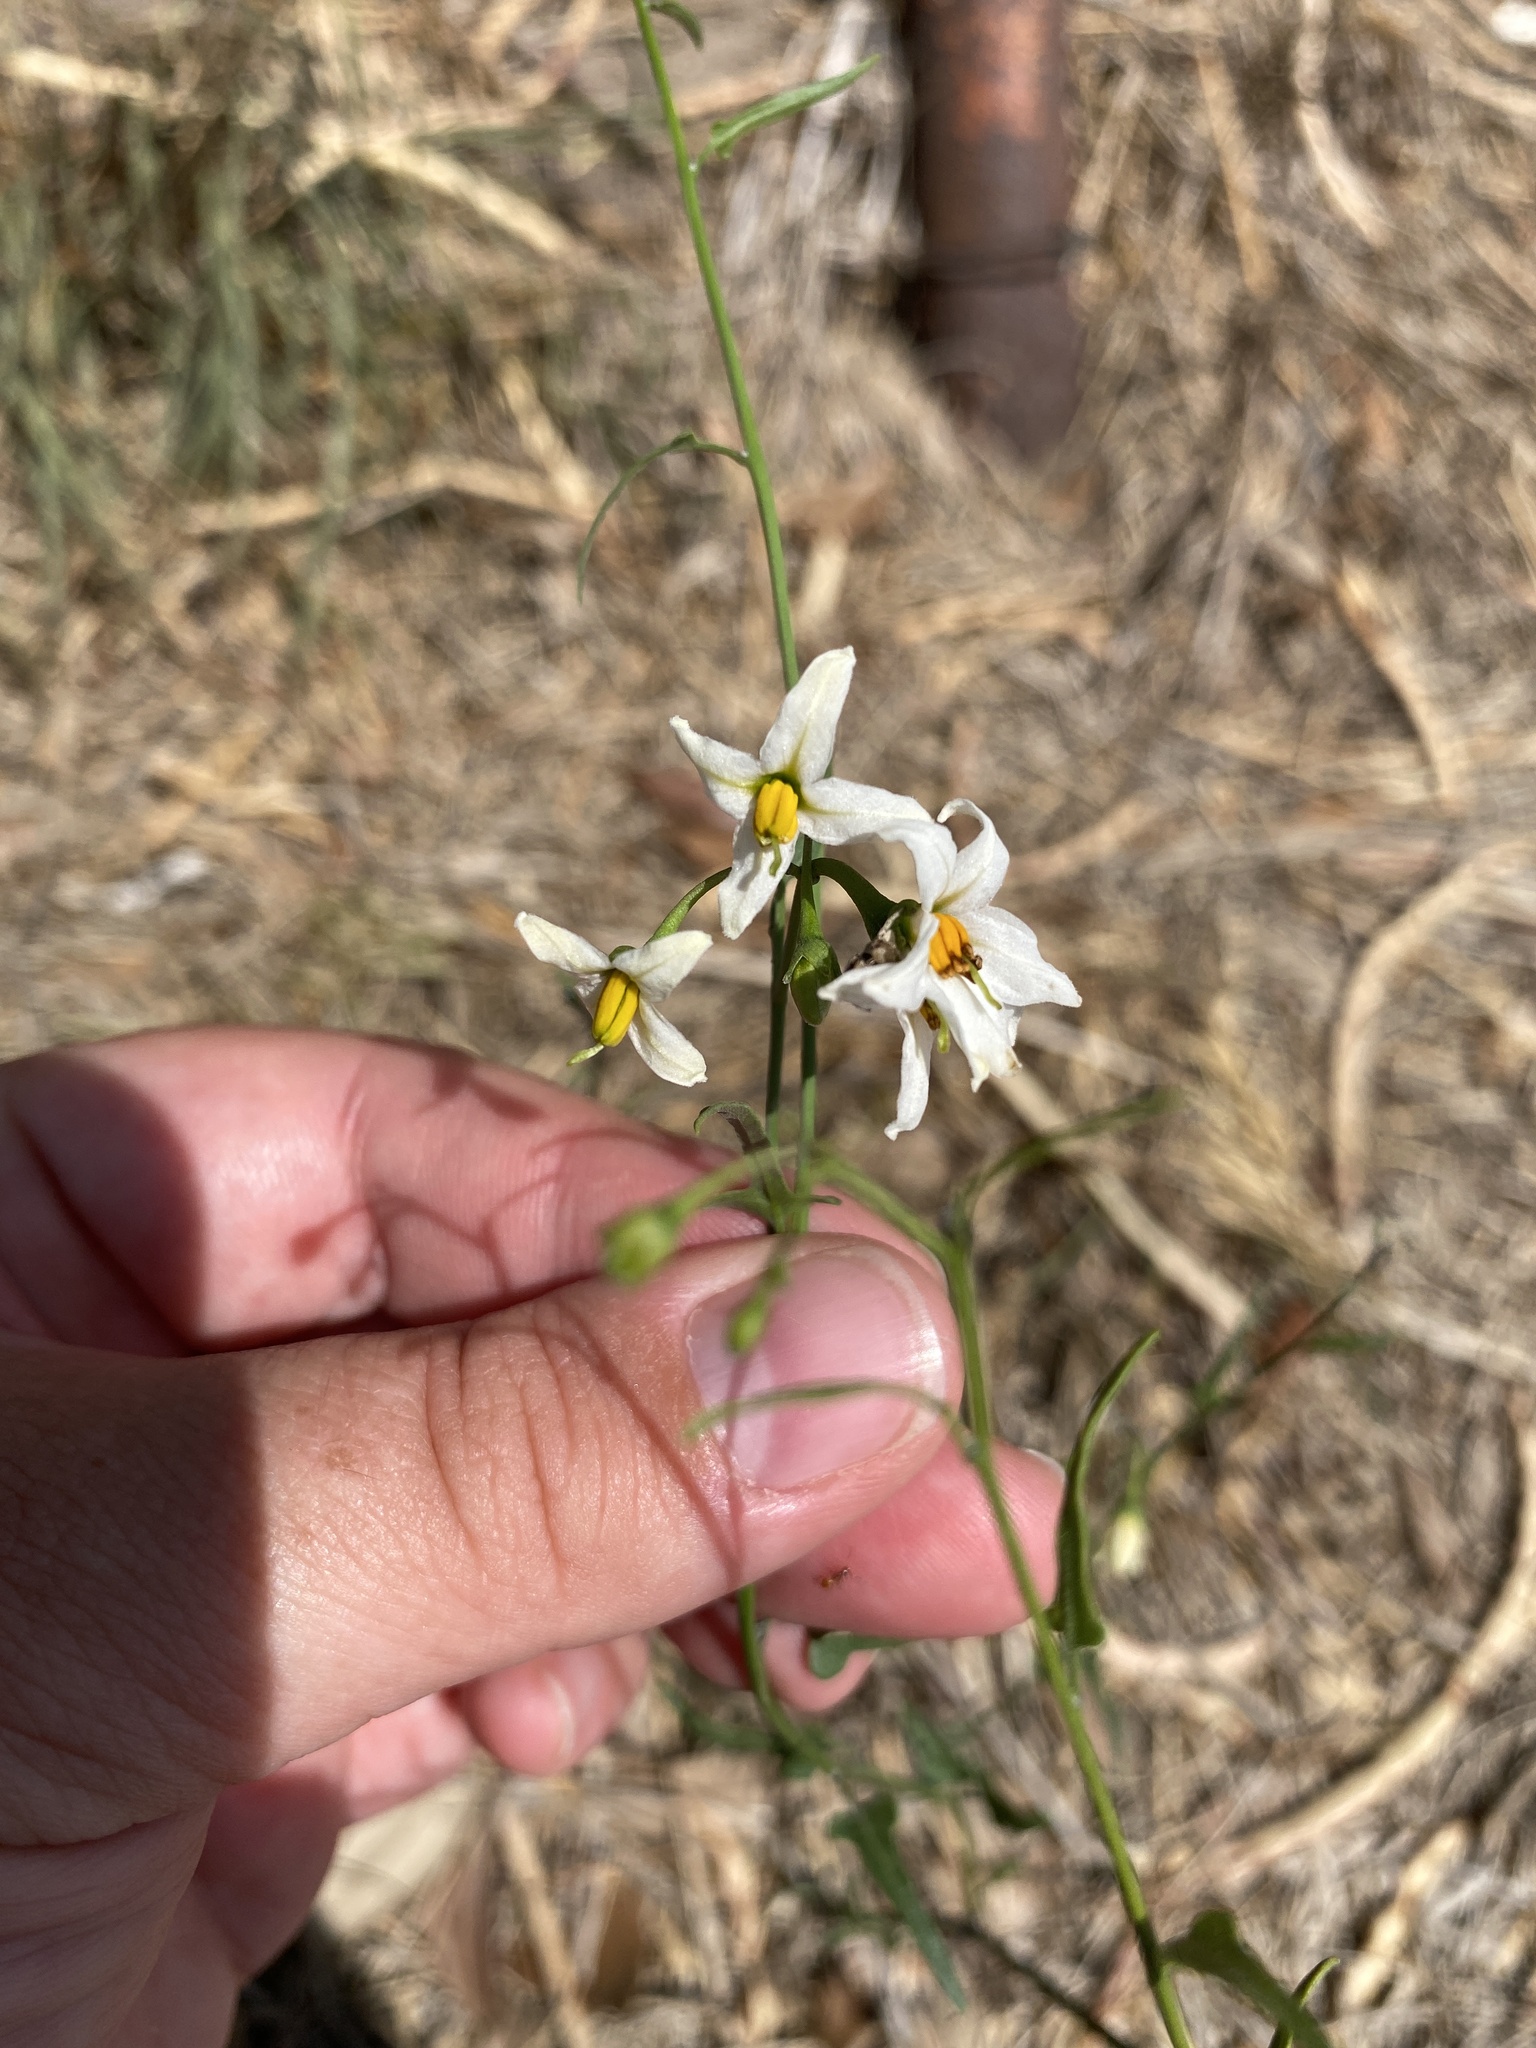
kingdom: Plantae
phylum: Tracheophyta
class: Magnoliopsida
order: Solanales
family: Solanaceae
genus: Solanum
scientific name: Solanum triquetrum
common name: Texas nightshade
